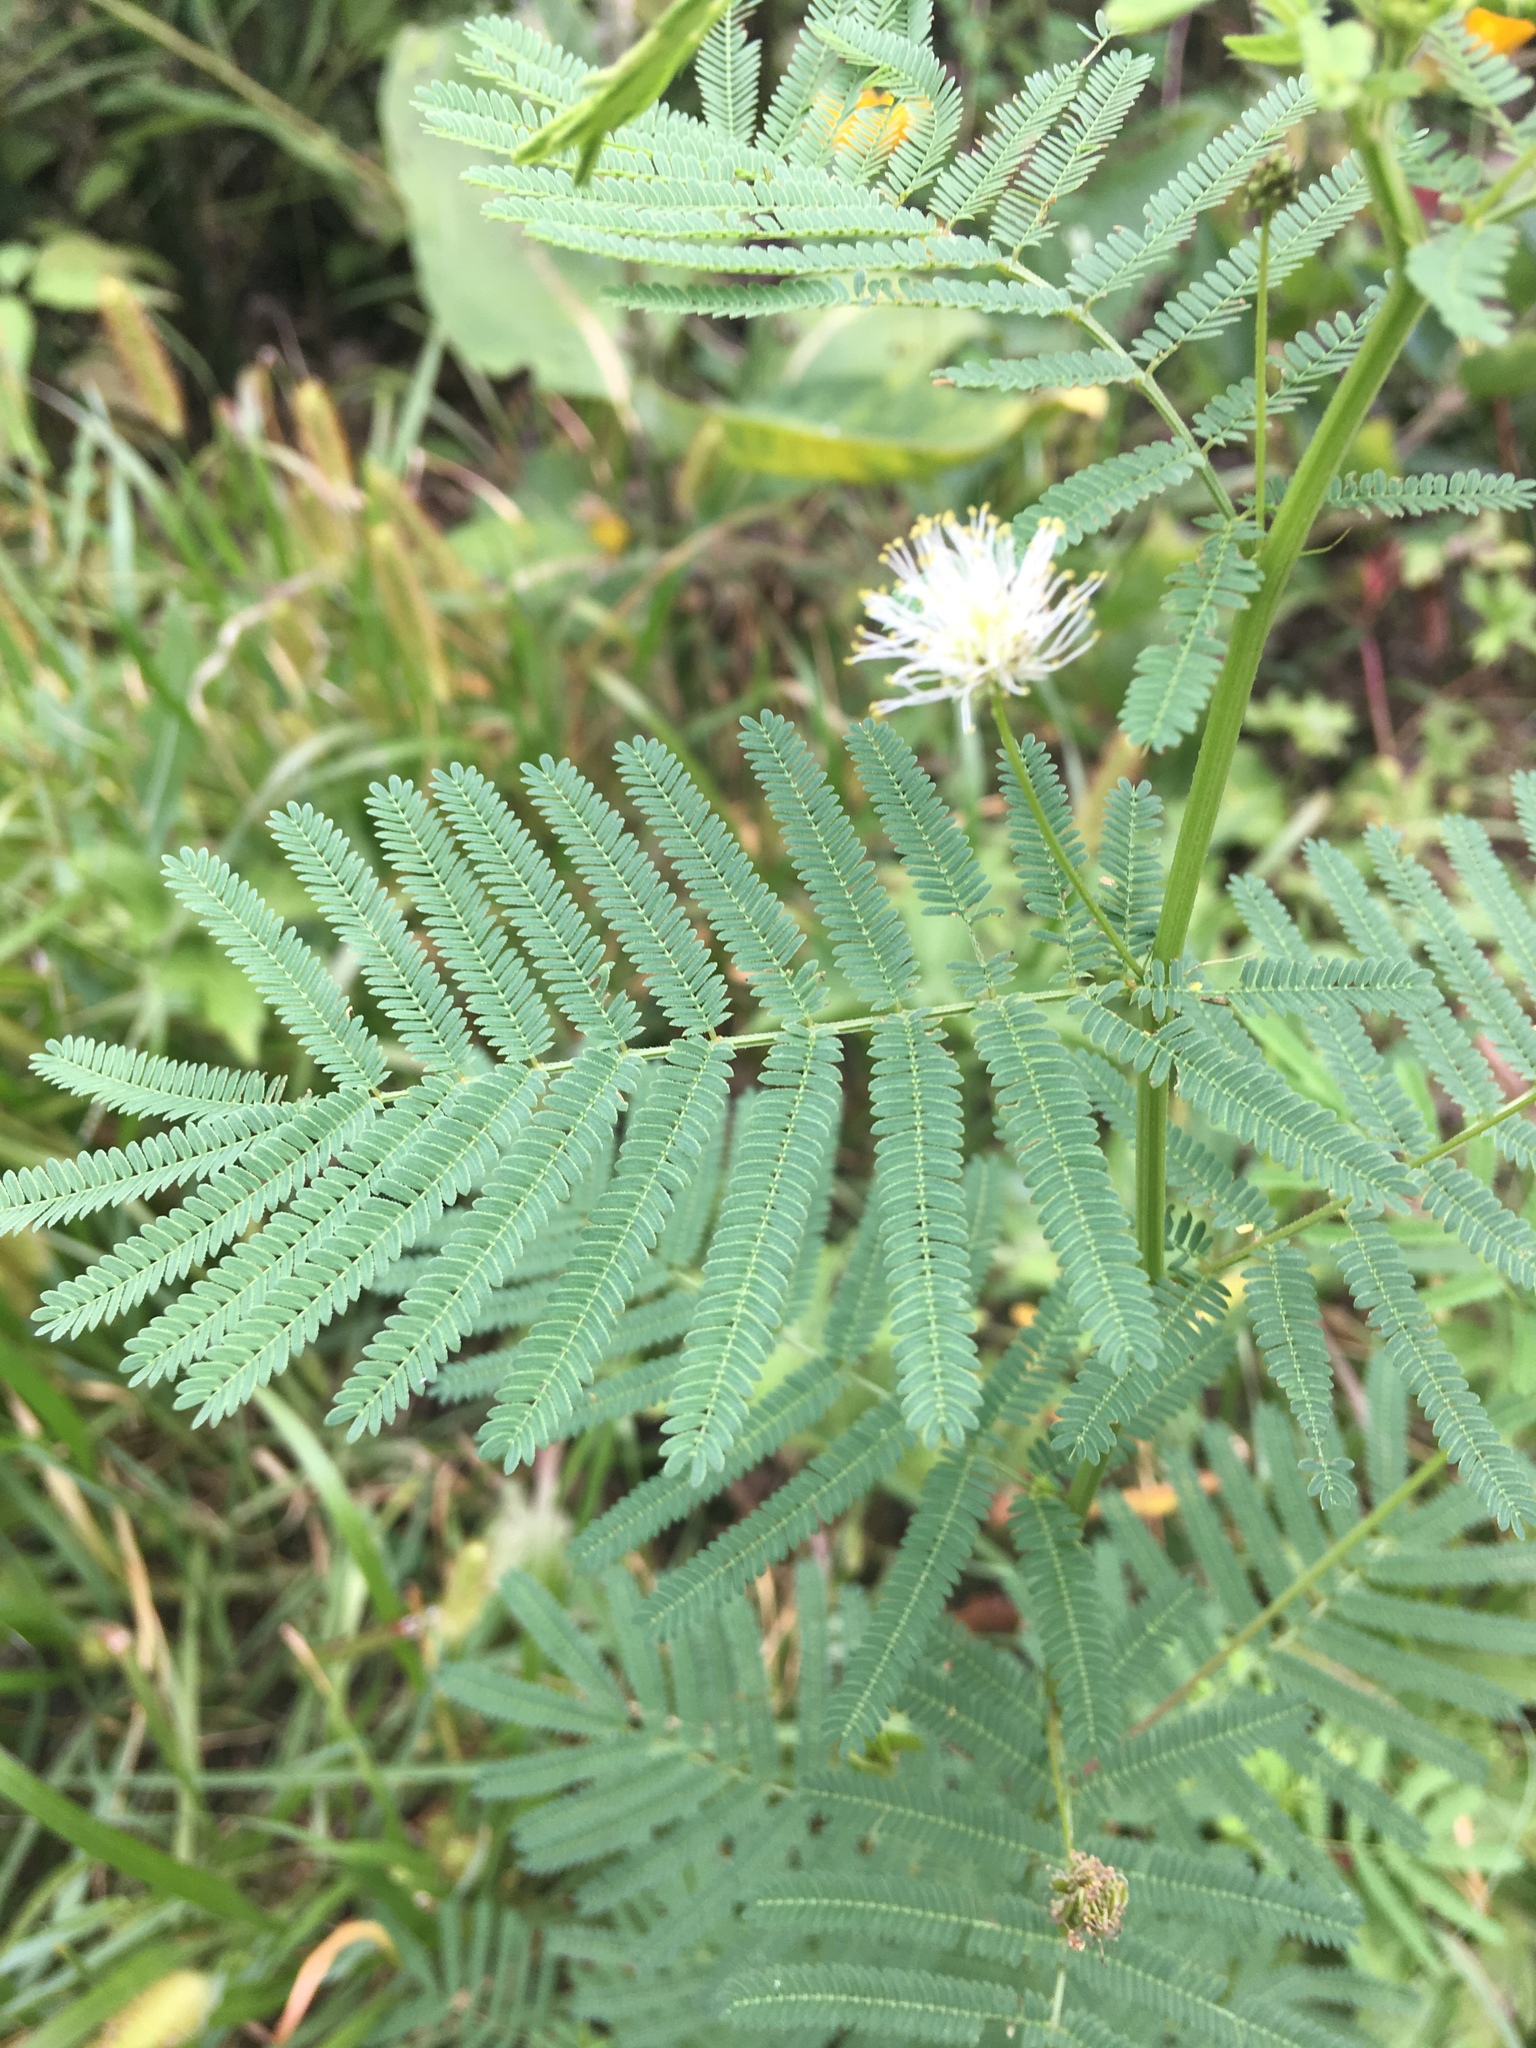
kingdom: Plantae
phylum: Tracheophyta
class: Magnoliopsida
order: Fabales
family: Fabaceae
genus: Desmanthus
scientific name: Desmanthus illinoensis
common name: Illinois bundle-flower
